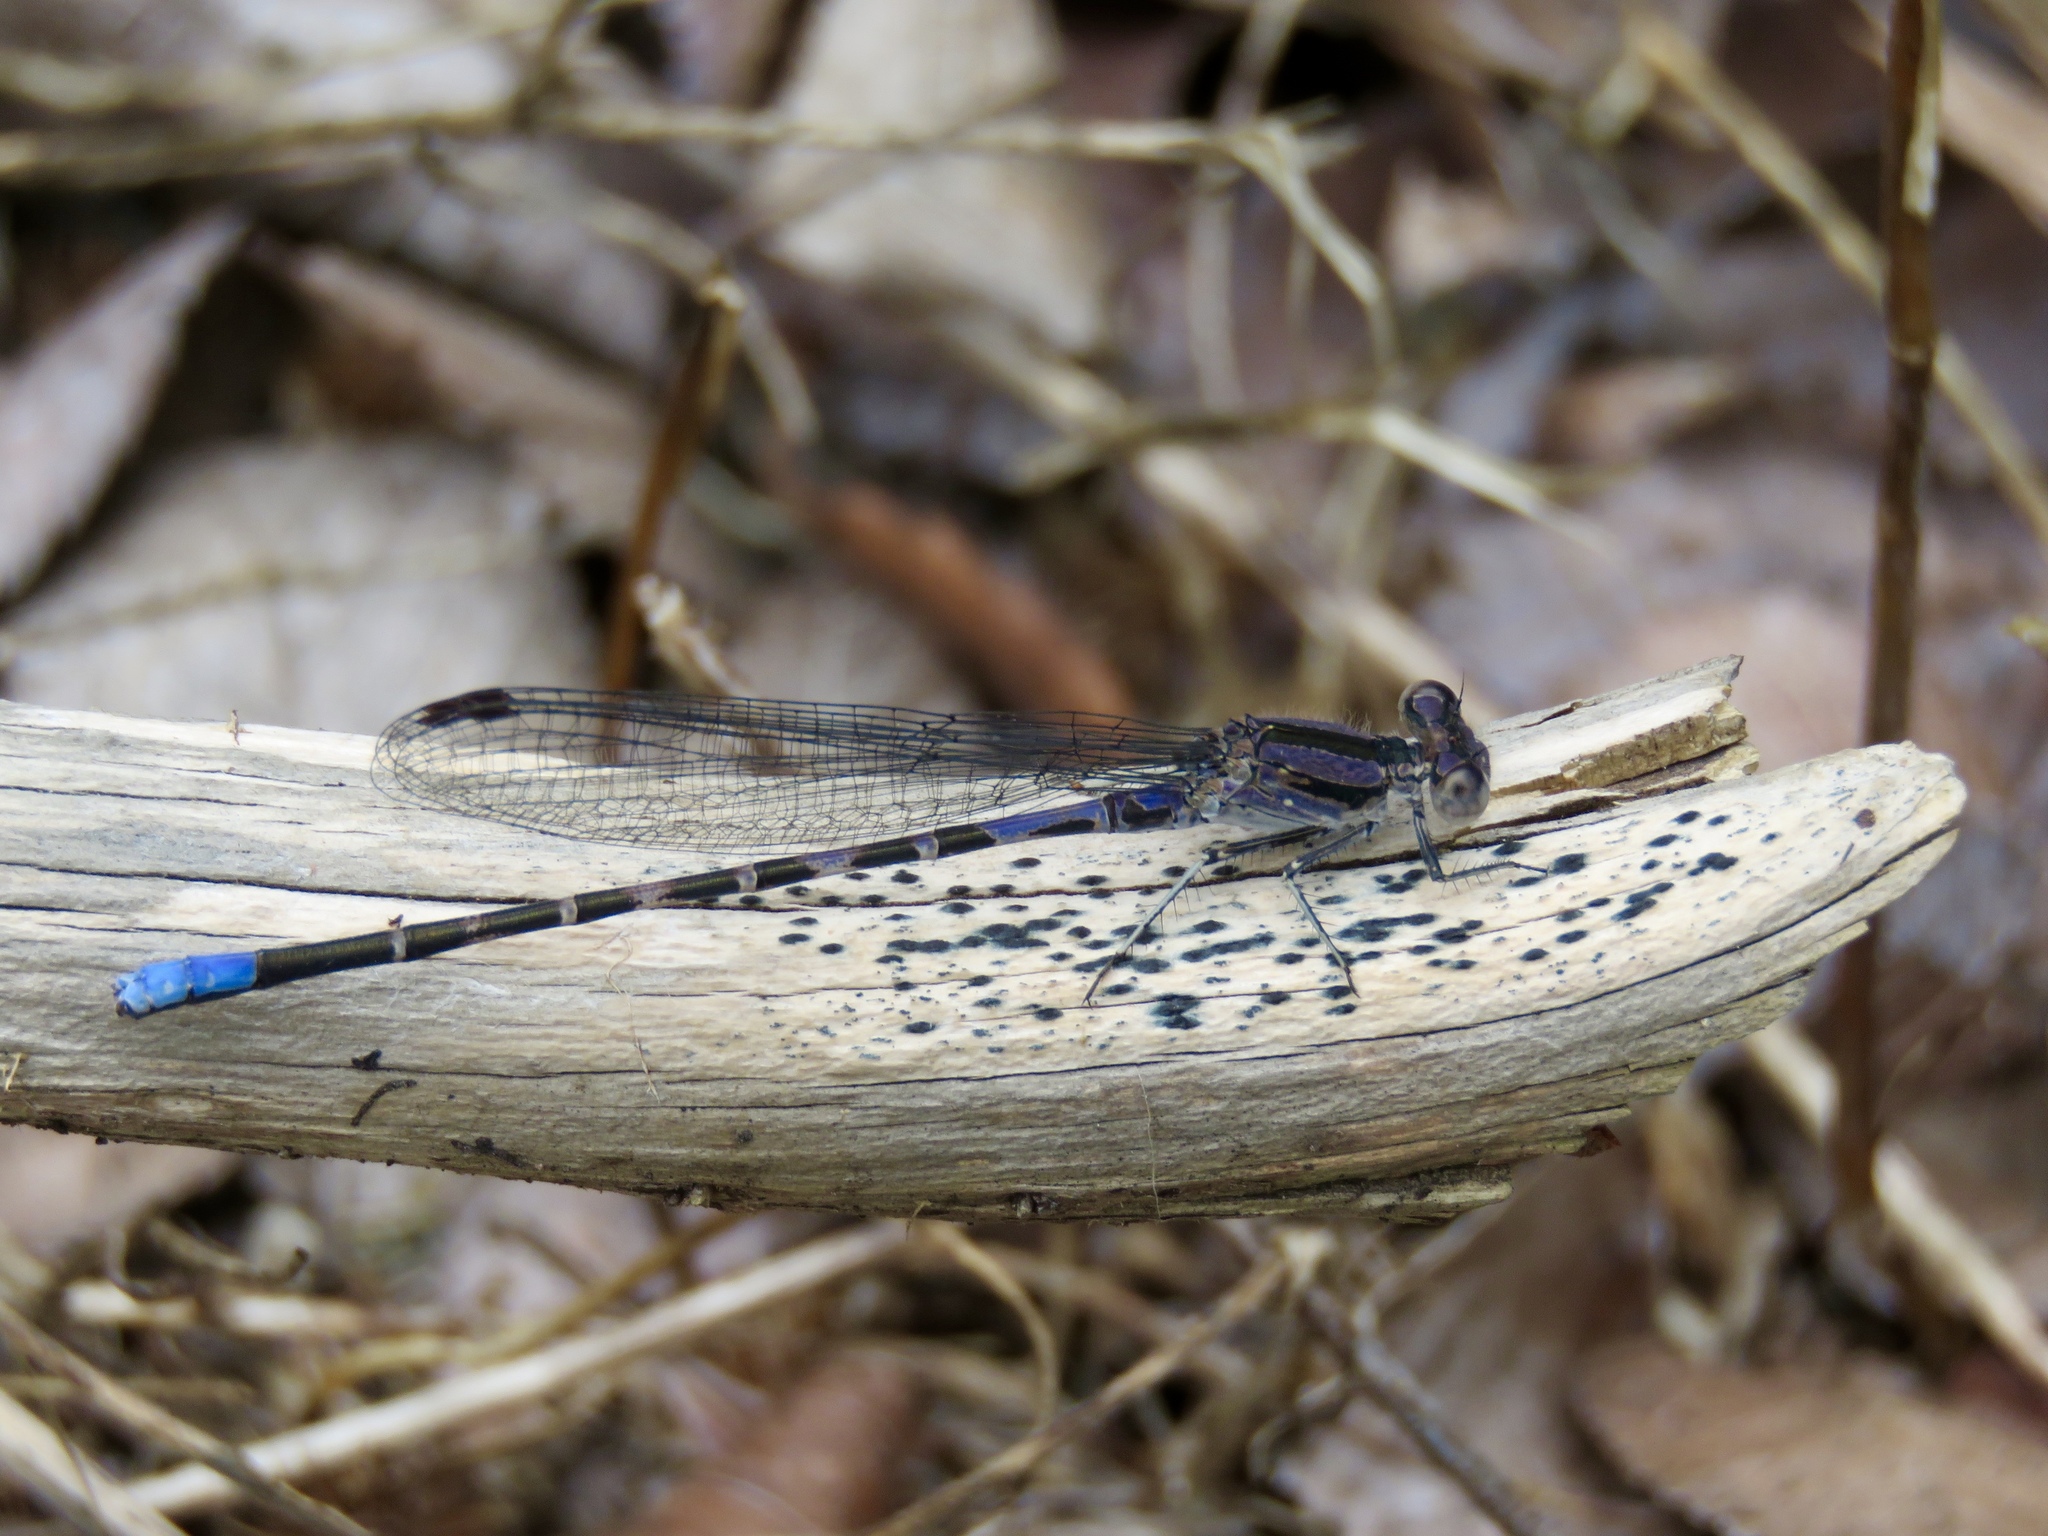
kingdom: Animalia
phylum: Arthropoda
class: Insecta
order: Odonata
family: Coenagrionidae
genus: Argia
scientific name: Argia immunda
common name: Kiowa dancer
